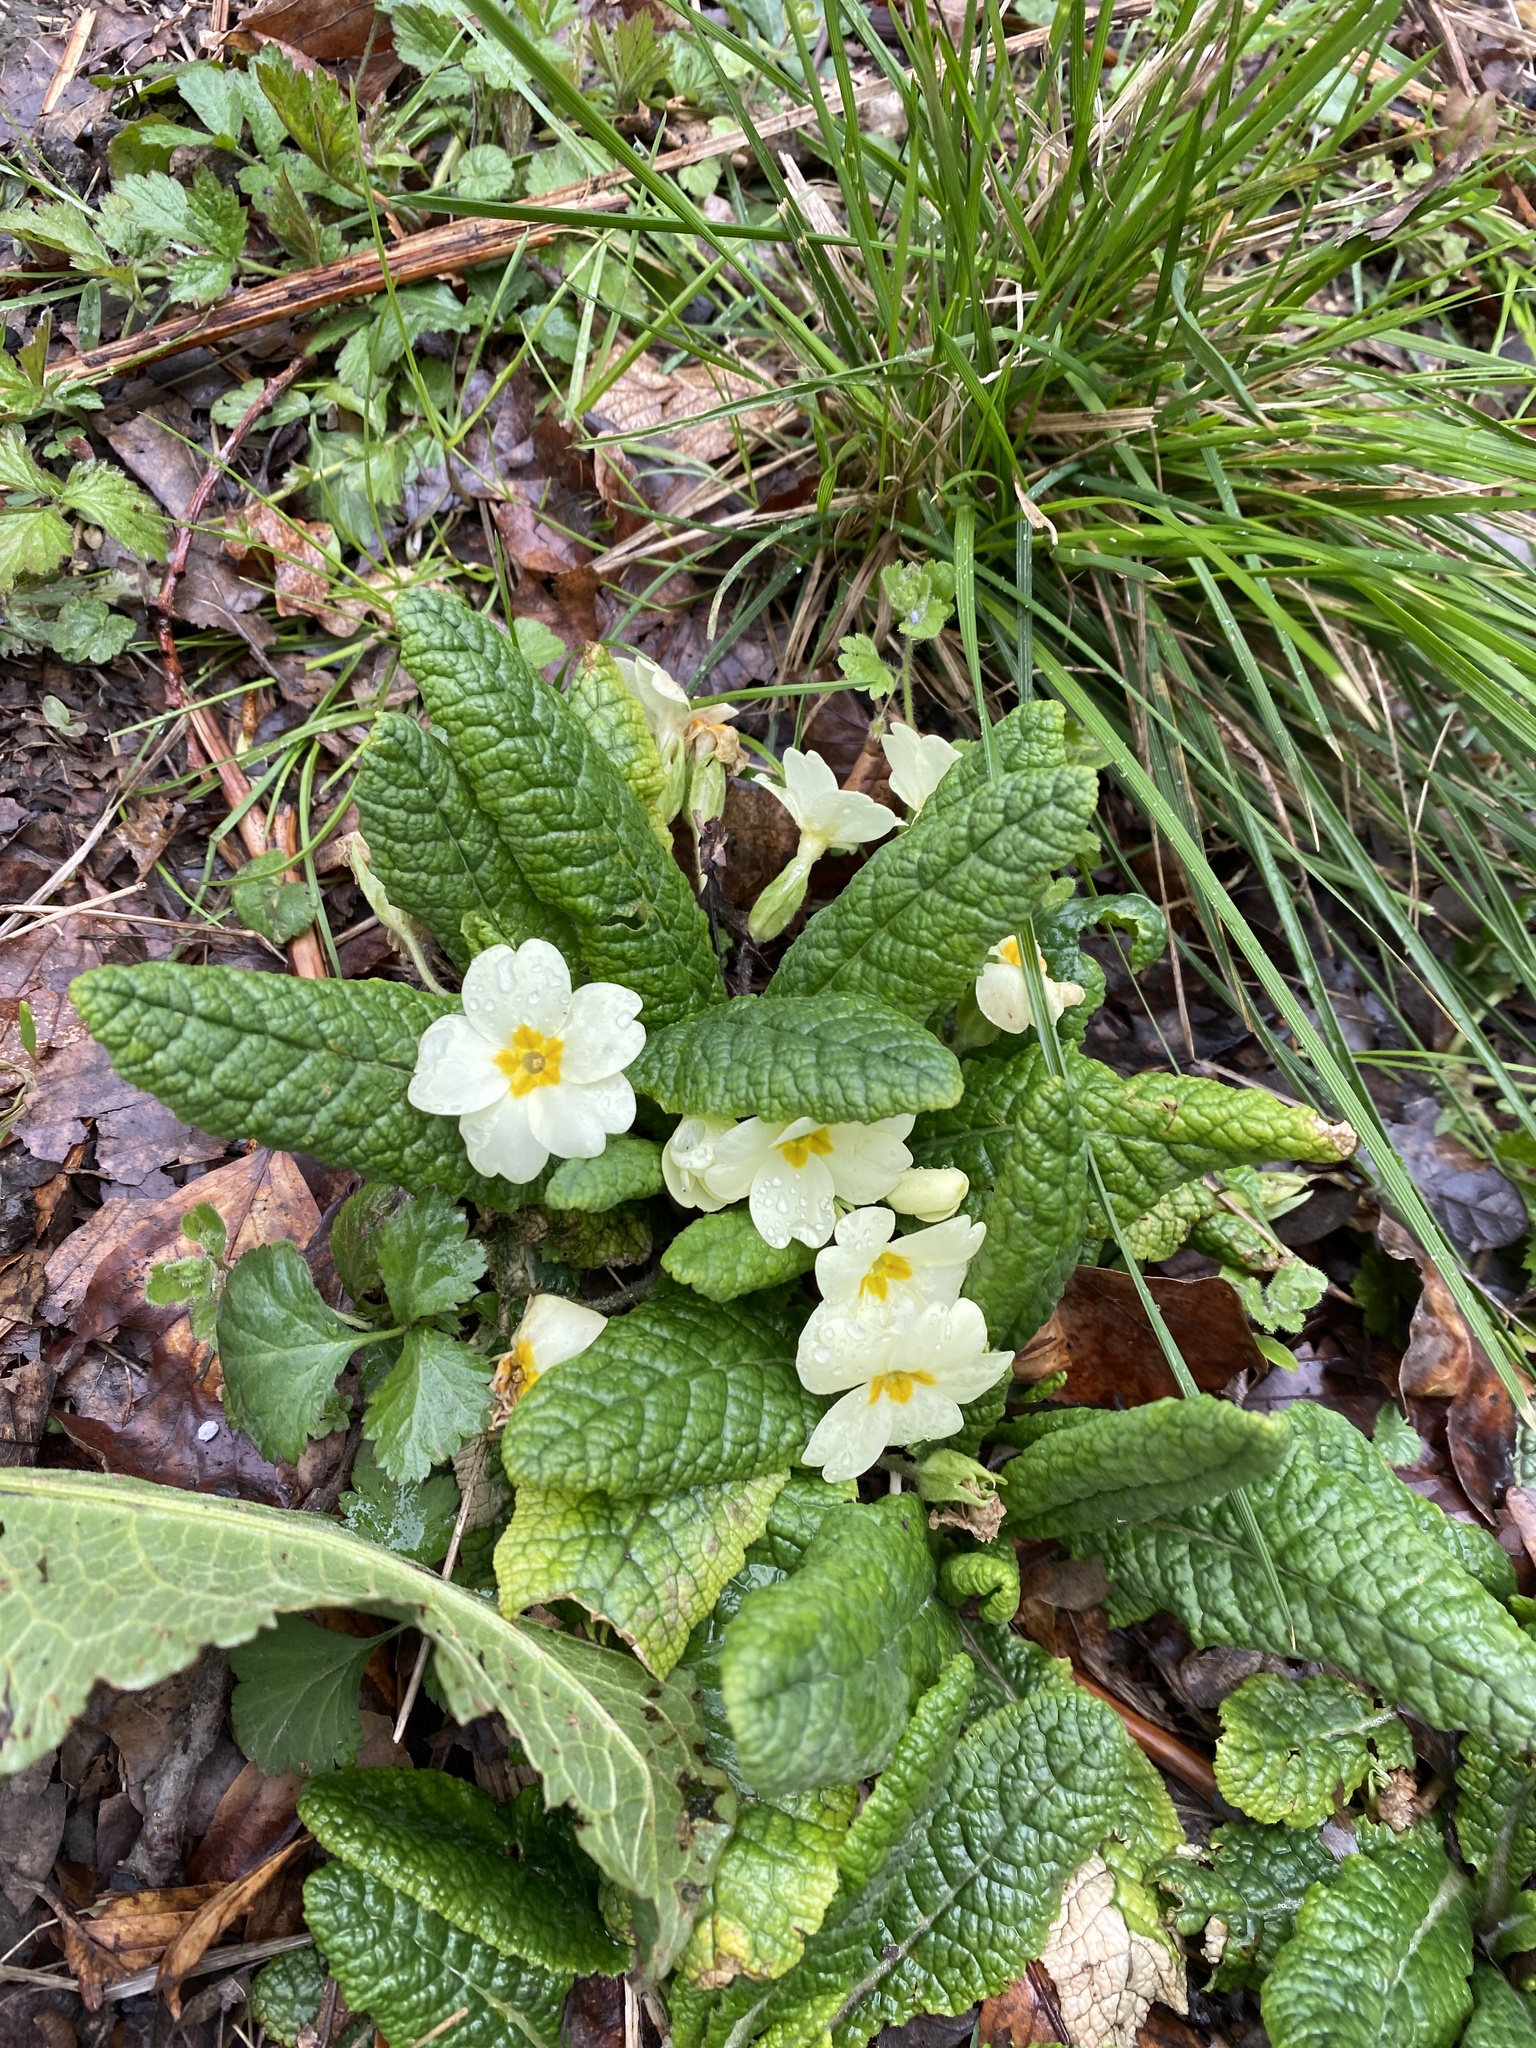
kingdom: Plantae
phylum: Tracheophyta
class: Magnoliopsida
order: Ericales
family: Primulaceae
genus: Primula
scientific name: Primula vulgaris
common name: Primrose
